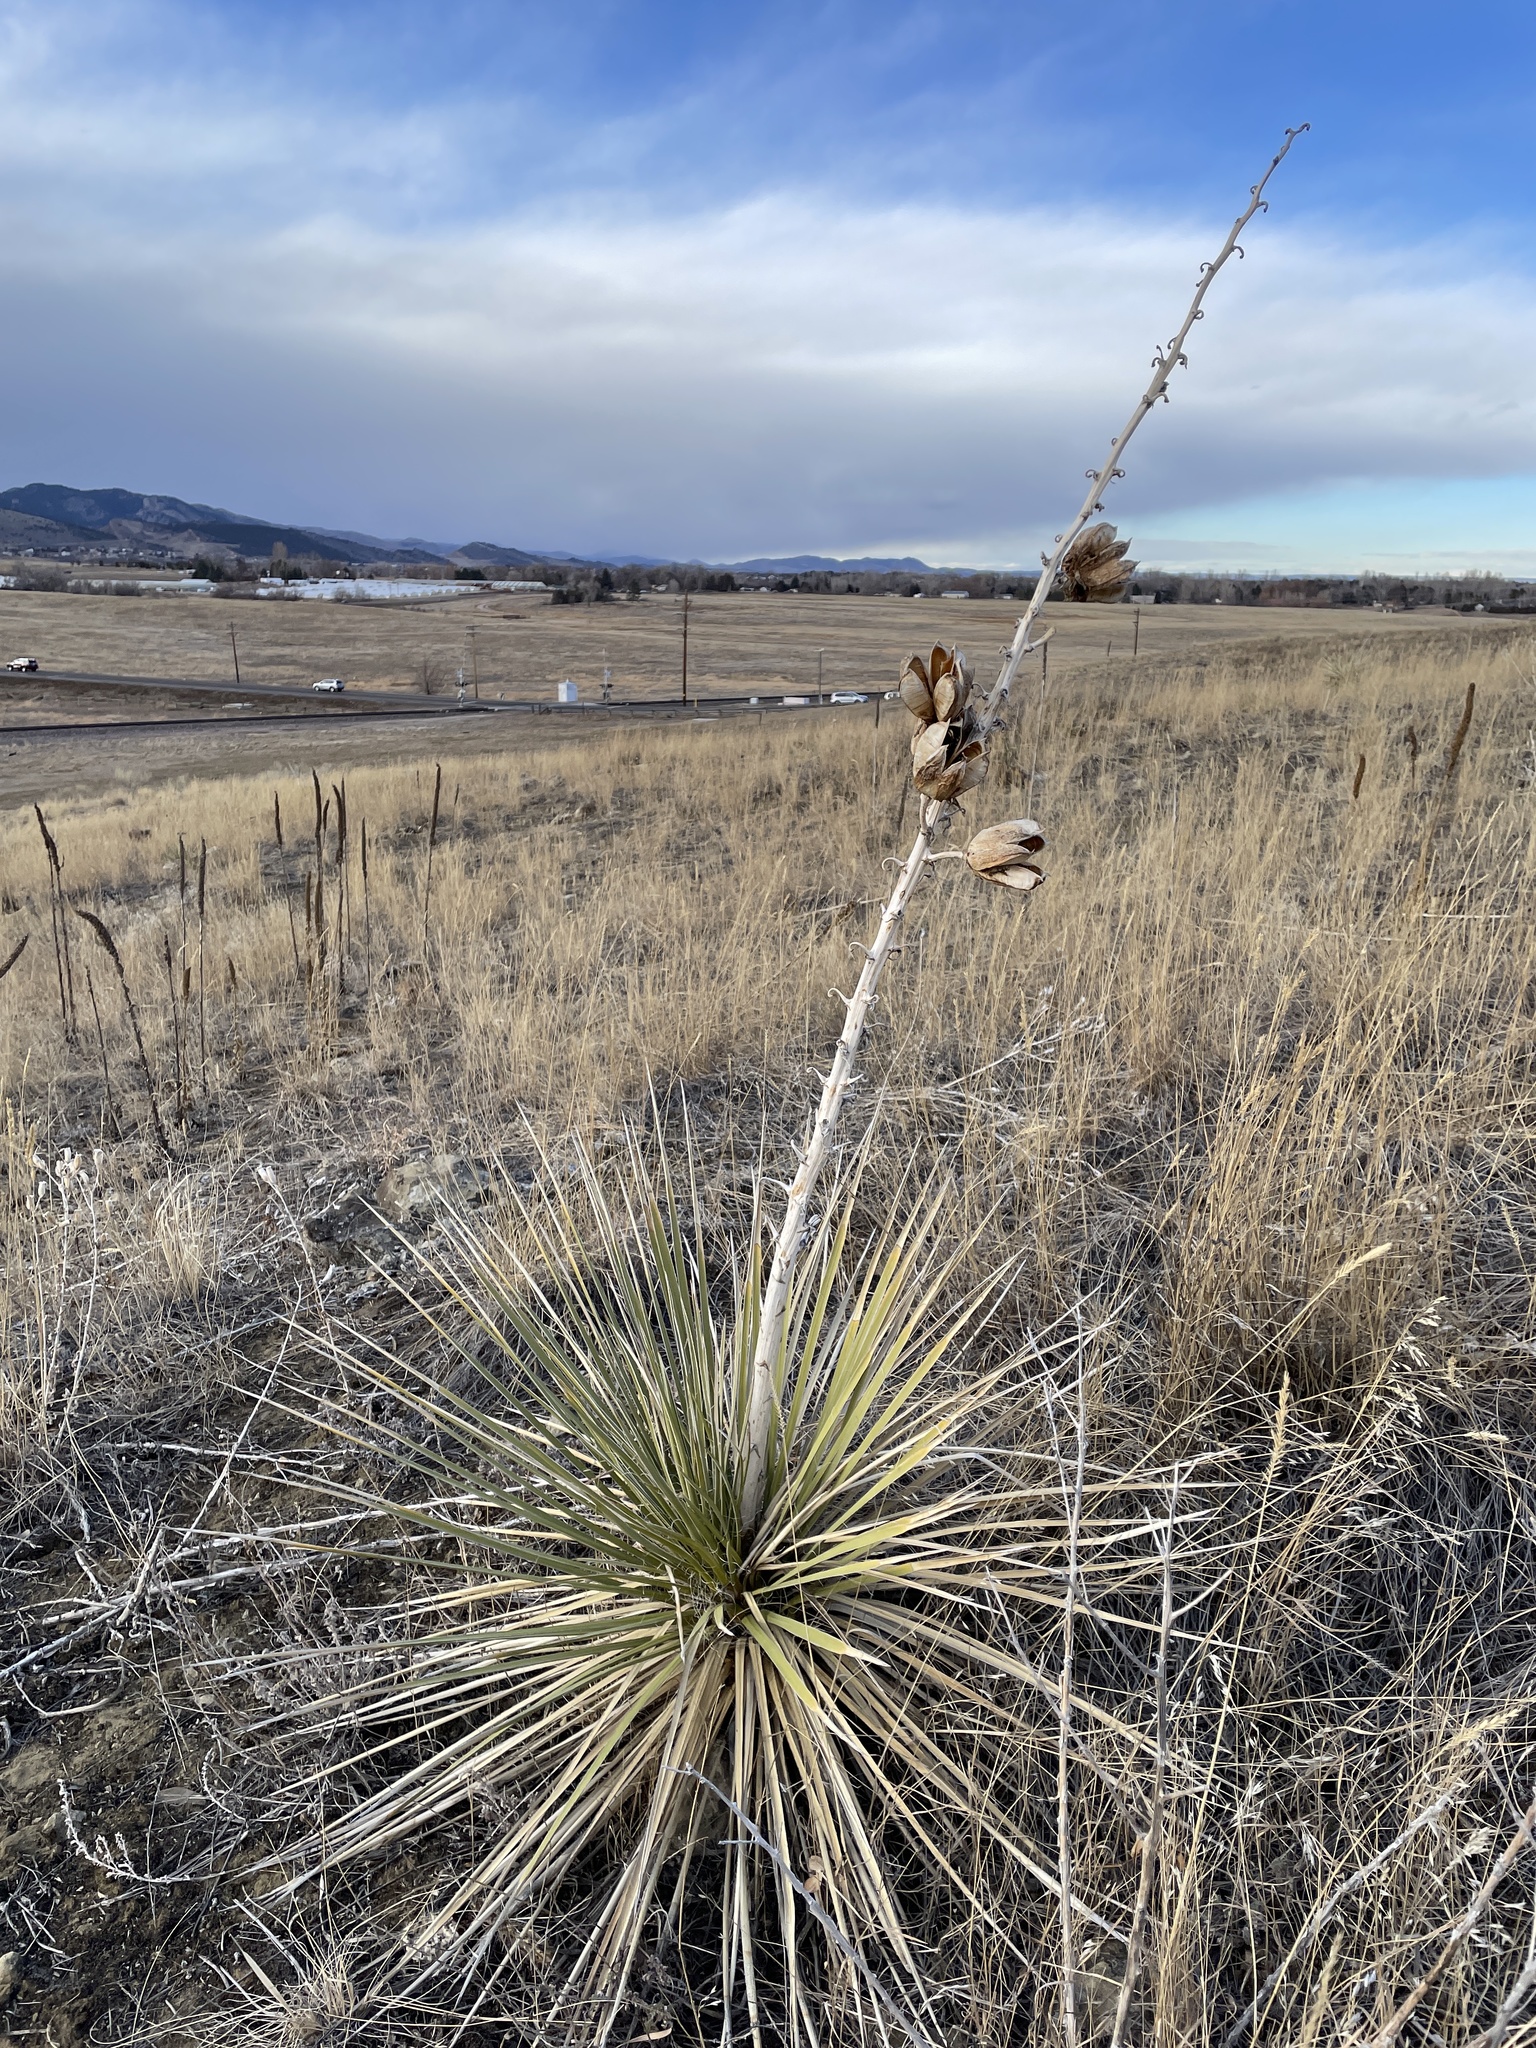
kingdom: Plantae
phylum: Tracheophyta
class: Liliopsida
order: Asparagales
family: Asparagaceae
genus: Yucca
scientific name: Yucca glauca
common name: Great plains yucca
